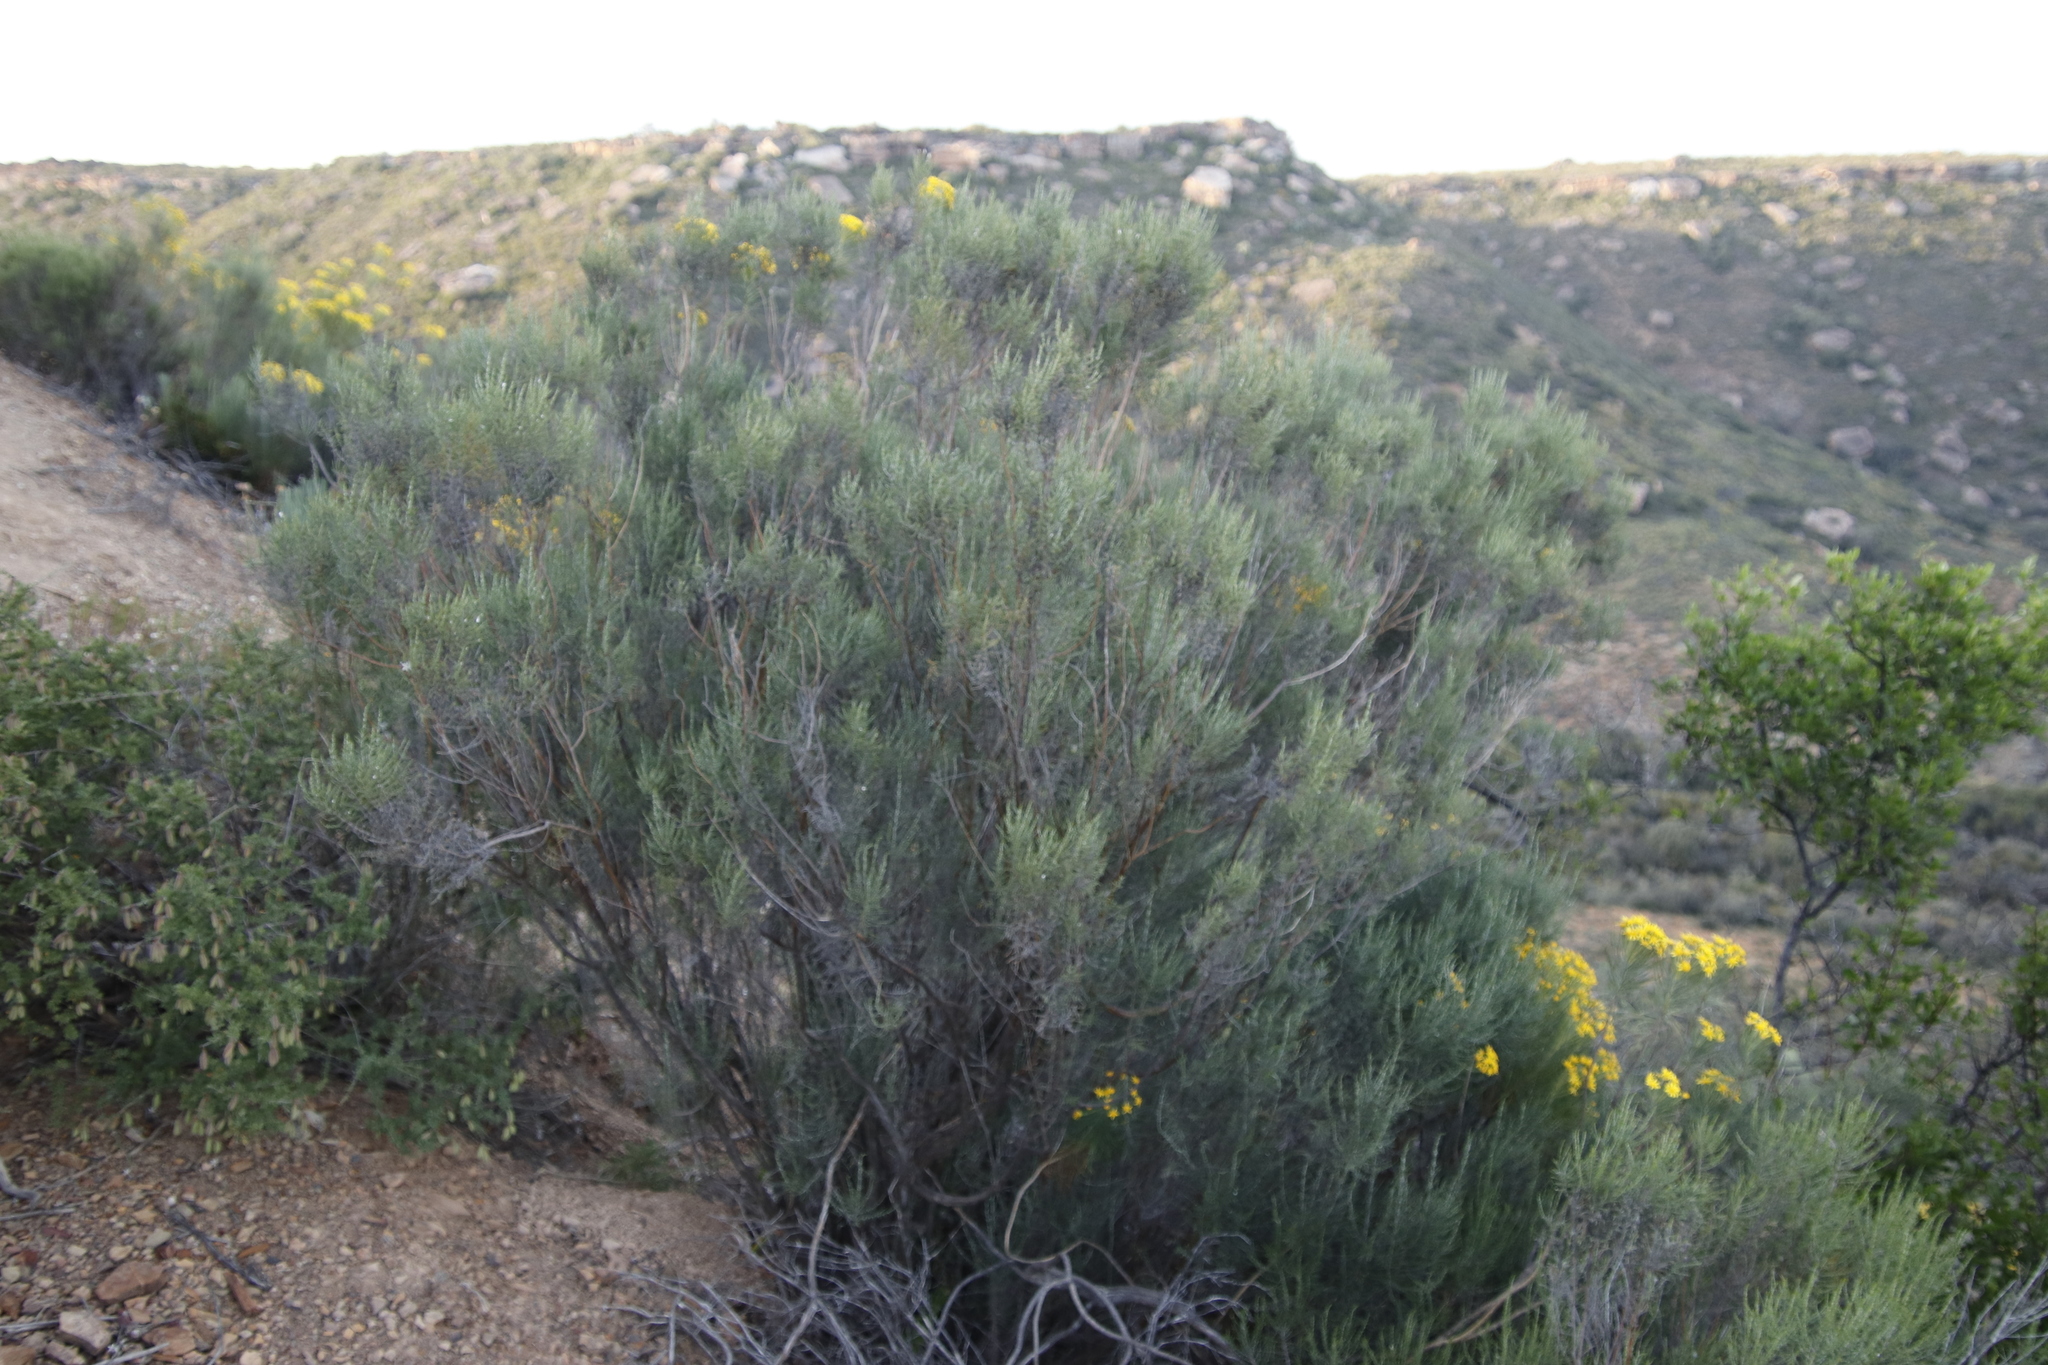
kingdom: Plantae
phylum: Tracheophyta
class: Magnoliopsida
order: Asterales
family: Asteraceae
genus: Dicerothamnus
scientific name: Dicerothamnus rhinocerotis
